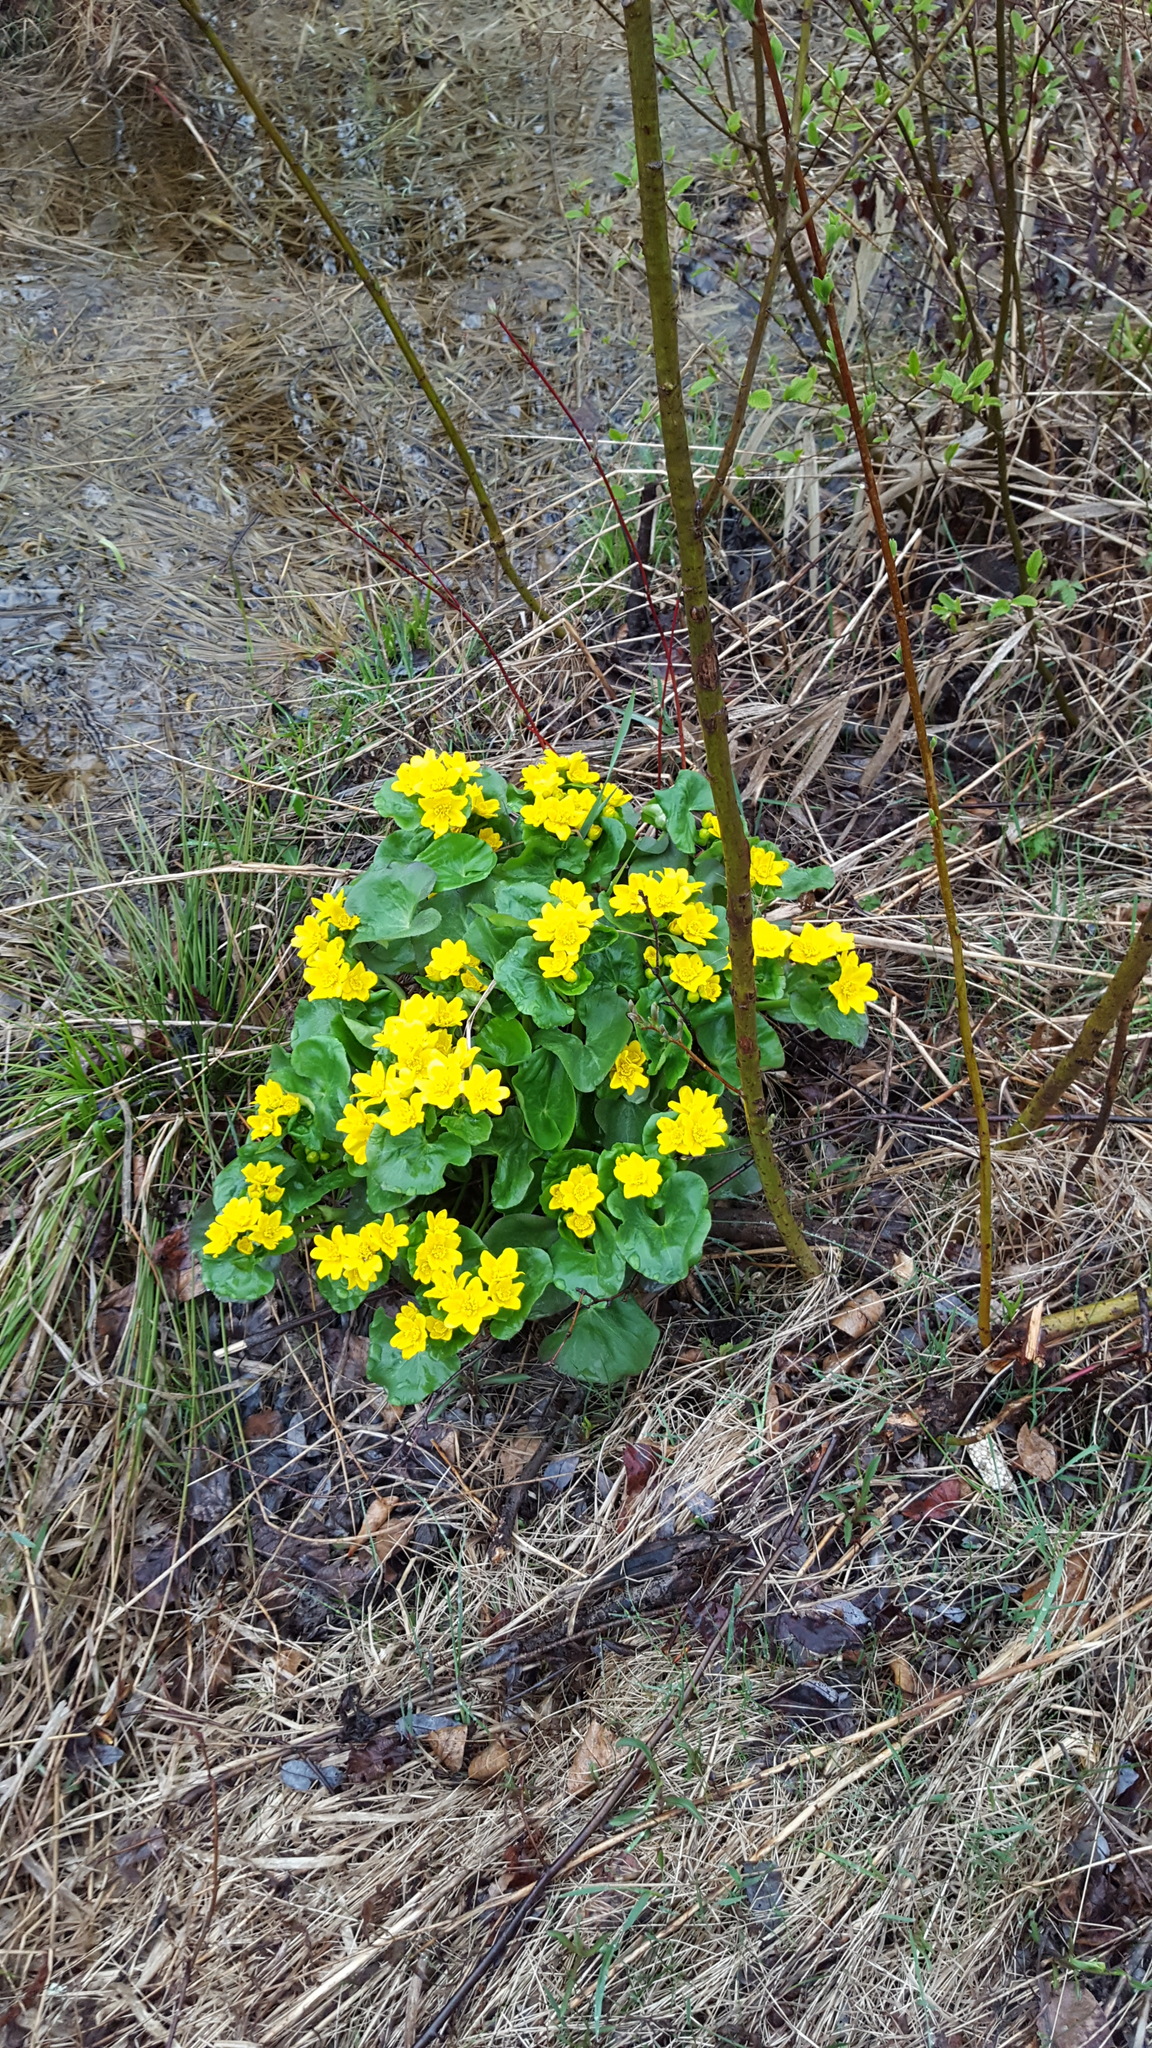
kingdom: Plantae
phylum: Tracheophyta
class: Magnoliopsida
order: Ranunculales
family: Ranunculaceae
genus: Caltha
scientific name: Caltha palustris
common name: Marsh marigold
